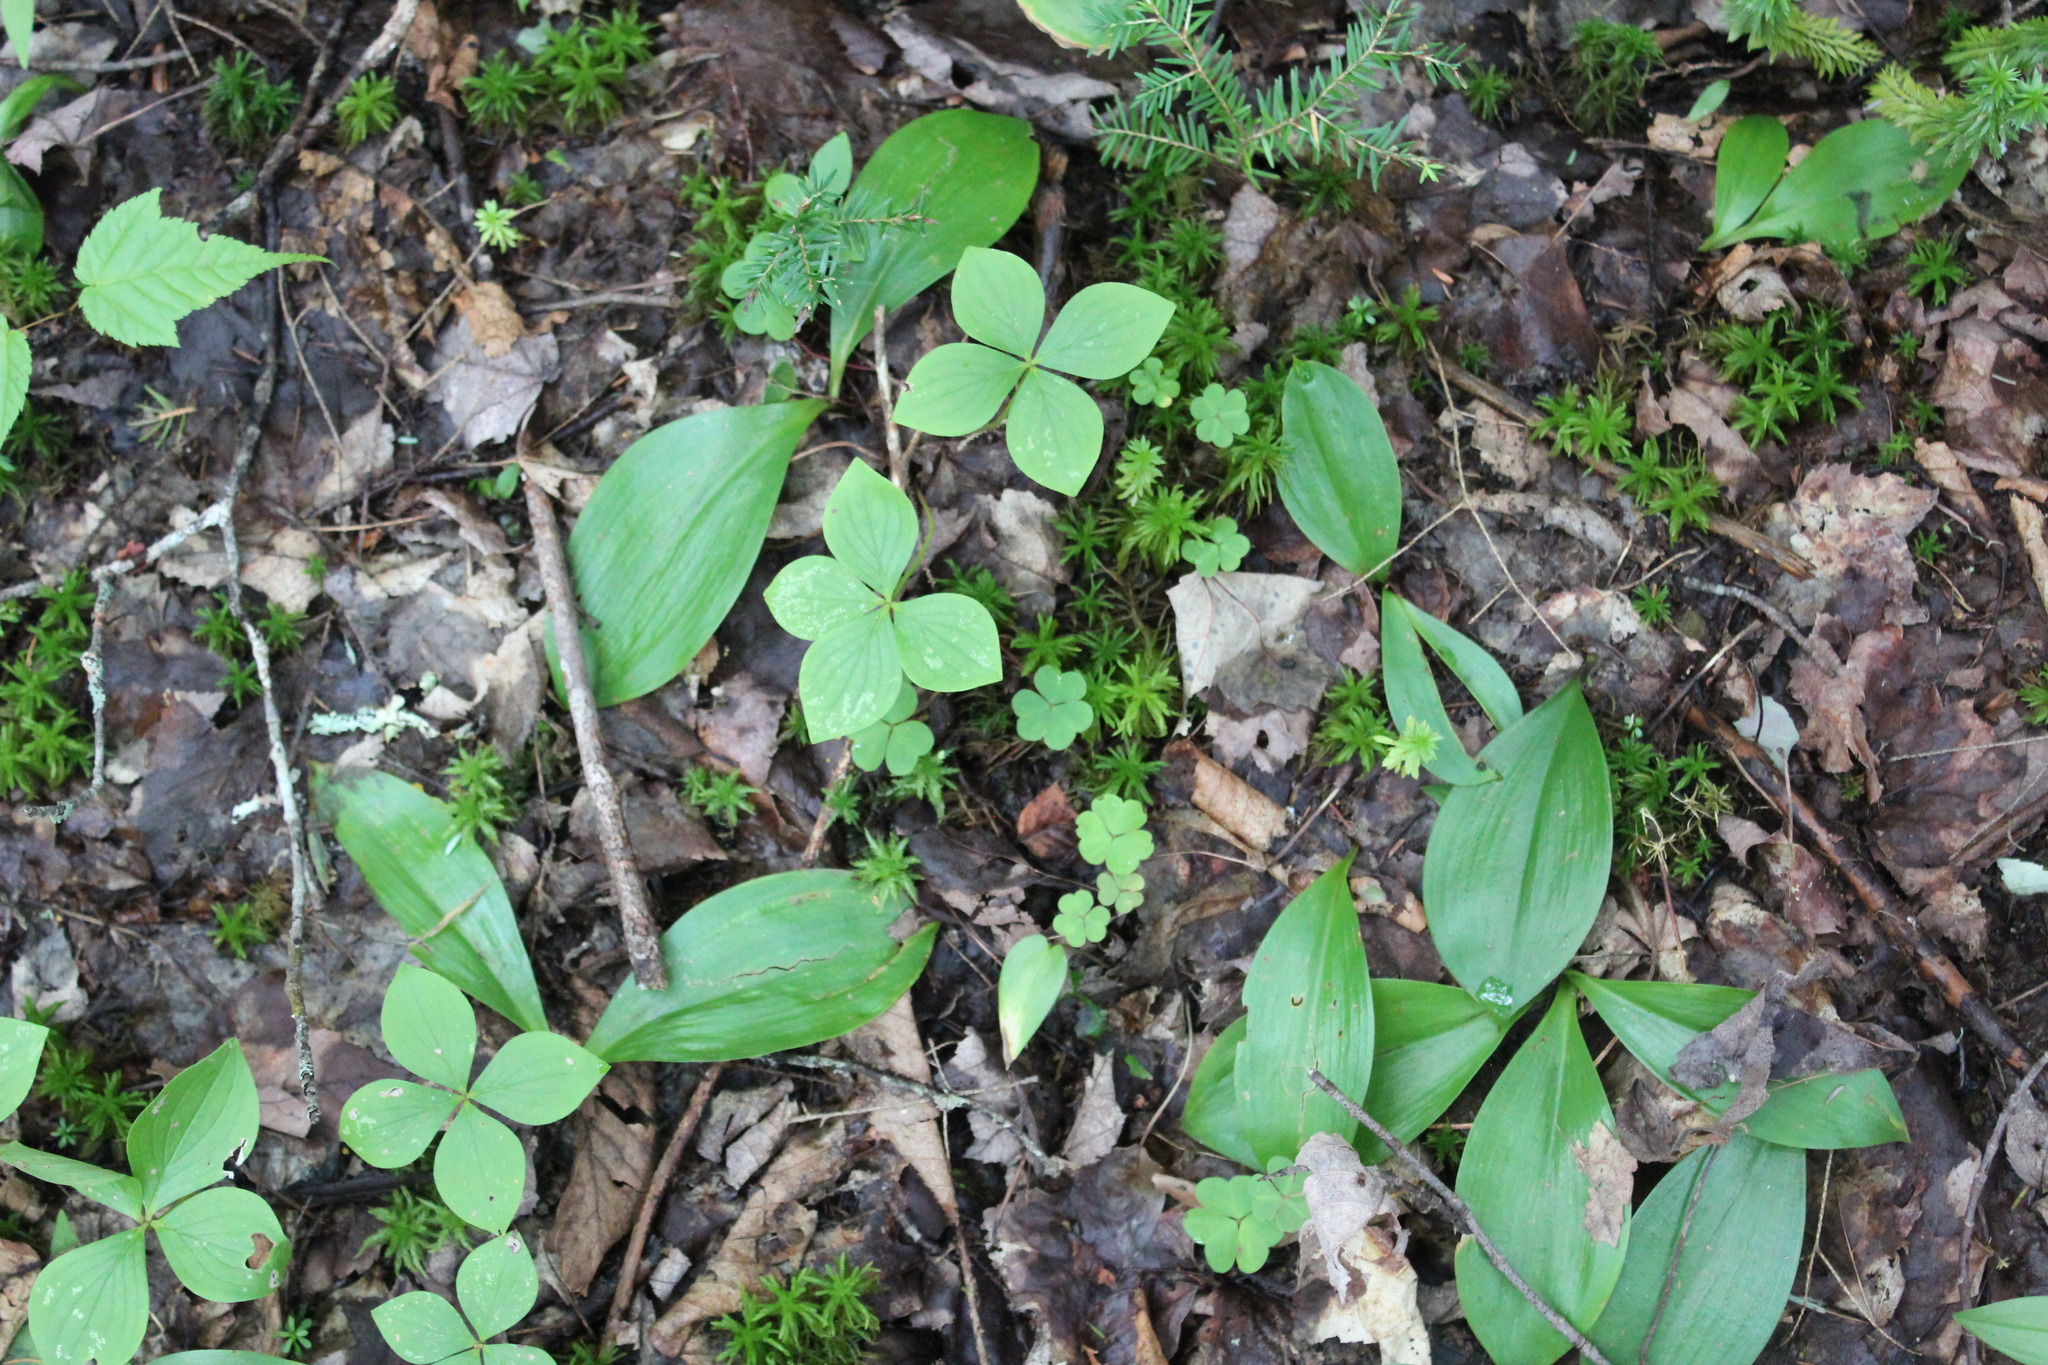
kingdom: Plantae
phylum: Tracheophyta
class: Magnoliopsida
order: Oxalidales
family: Oxalidaceae
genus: Oxalis
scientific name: Oxalis montana
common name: American wood-sorrel
